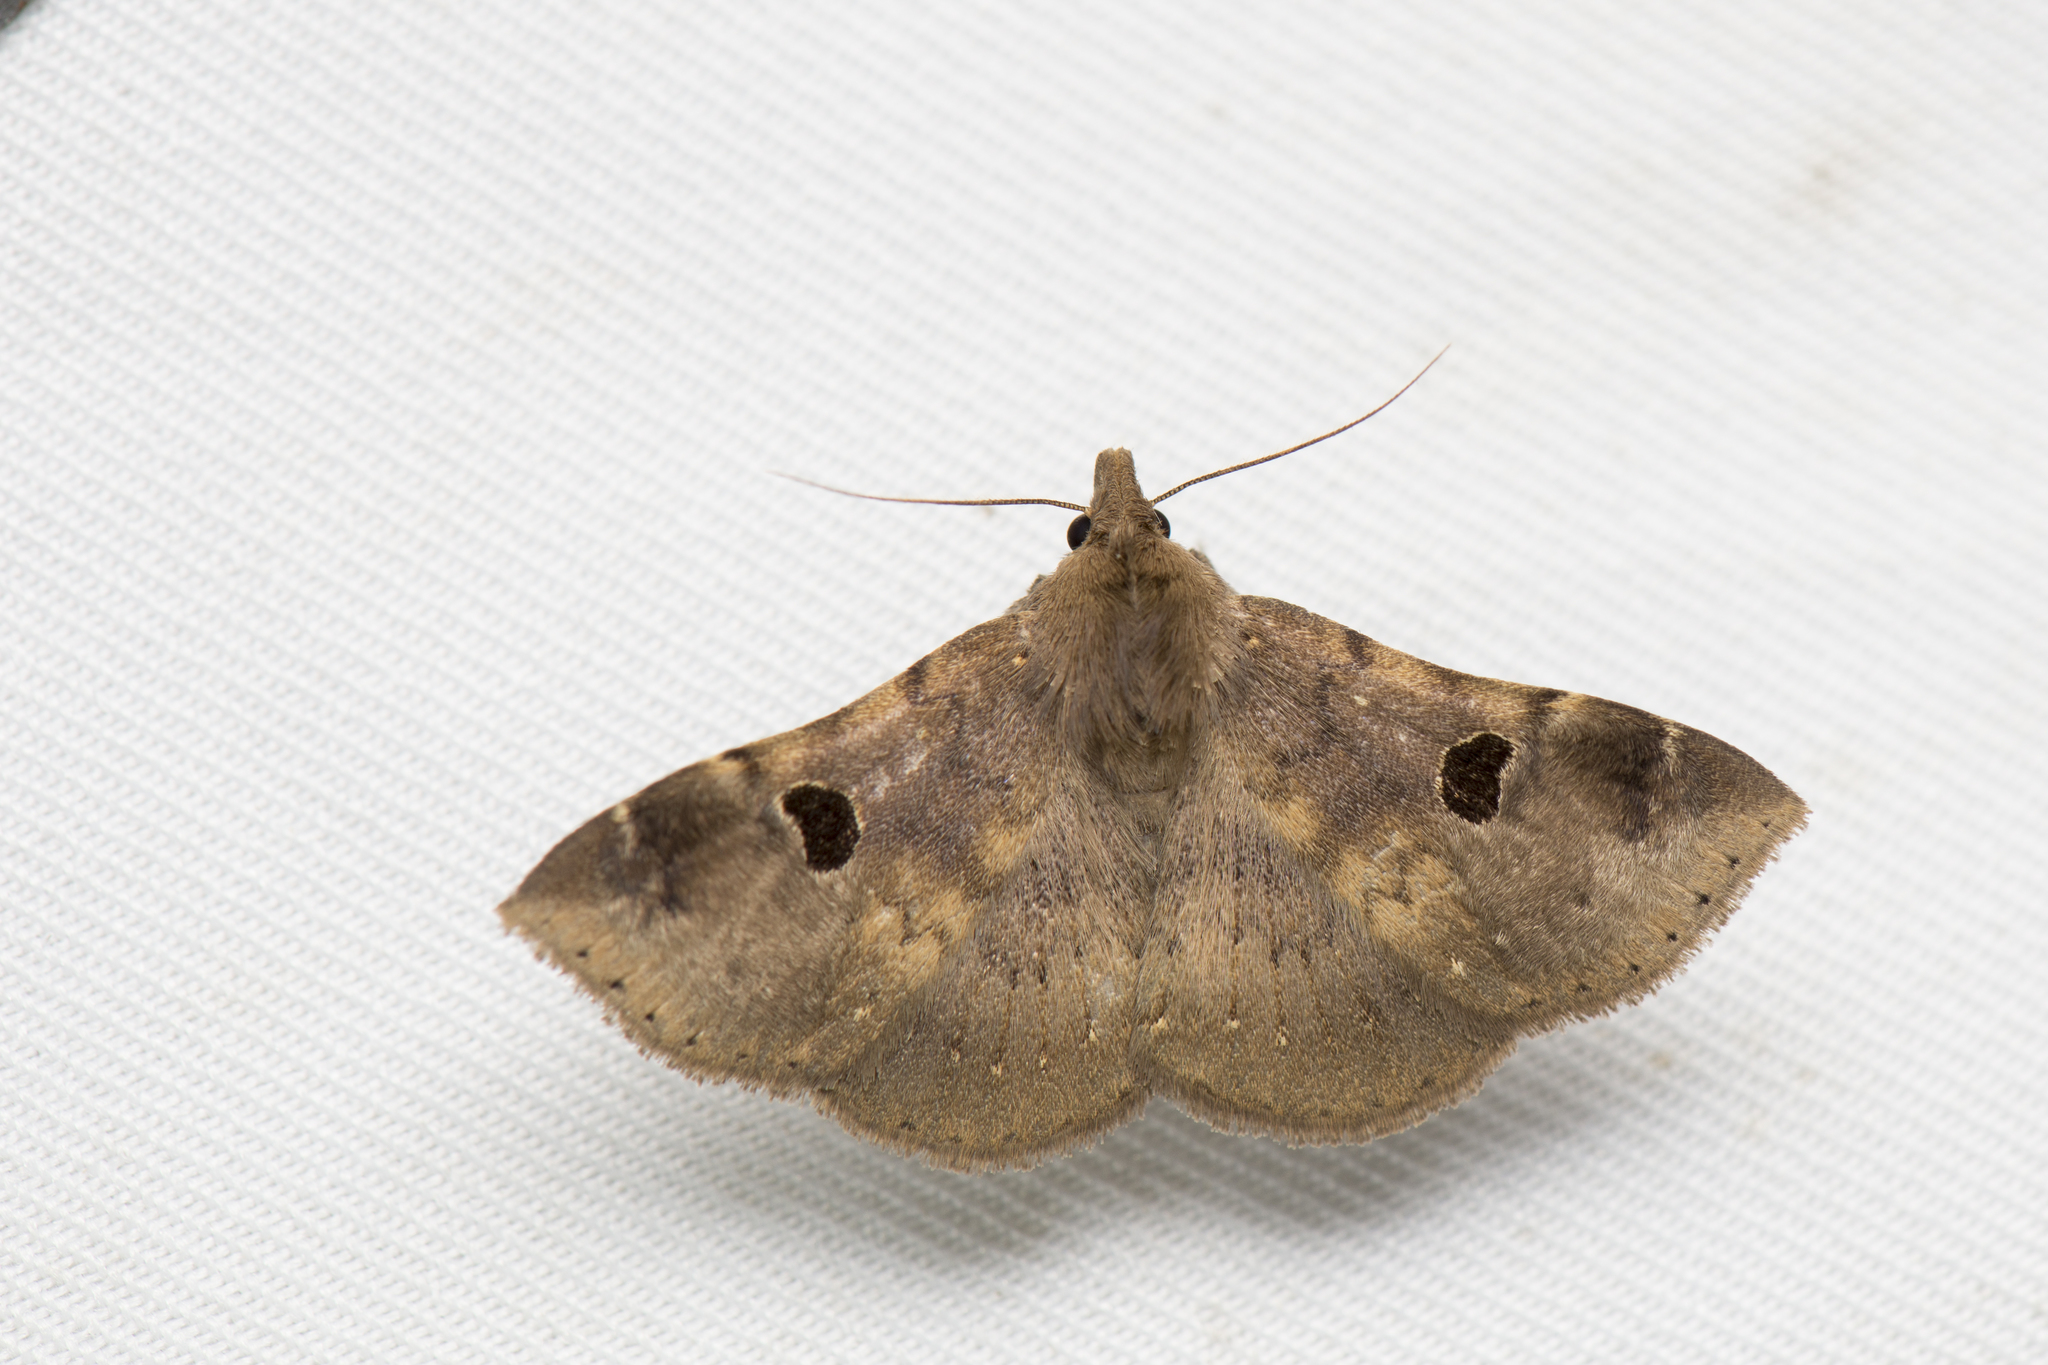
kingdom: Animalia
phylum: Arthropoda
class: Insecta
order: Lepidoptera
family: Erebidae
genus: Rhesala
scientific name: Rhesala imparata
